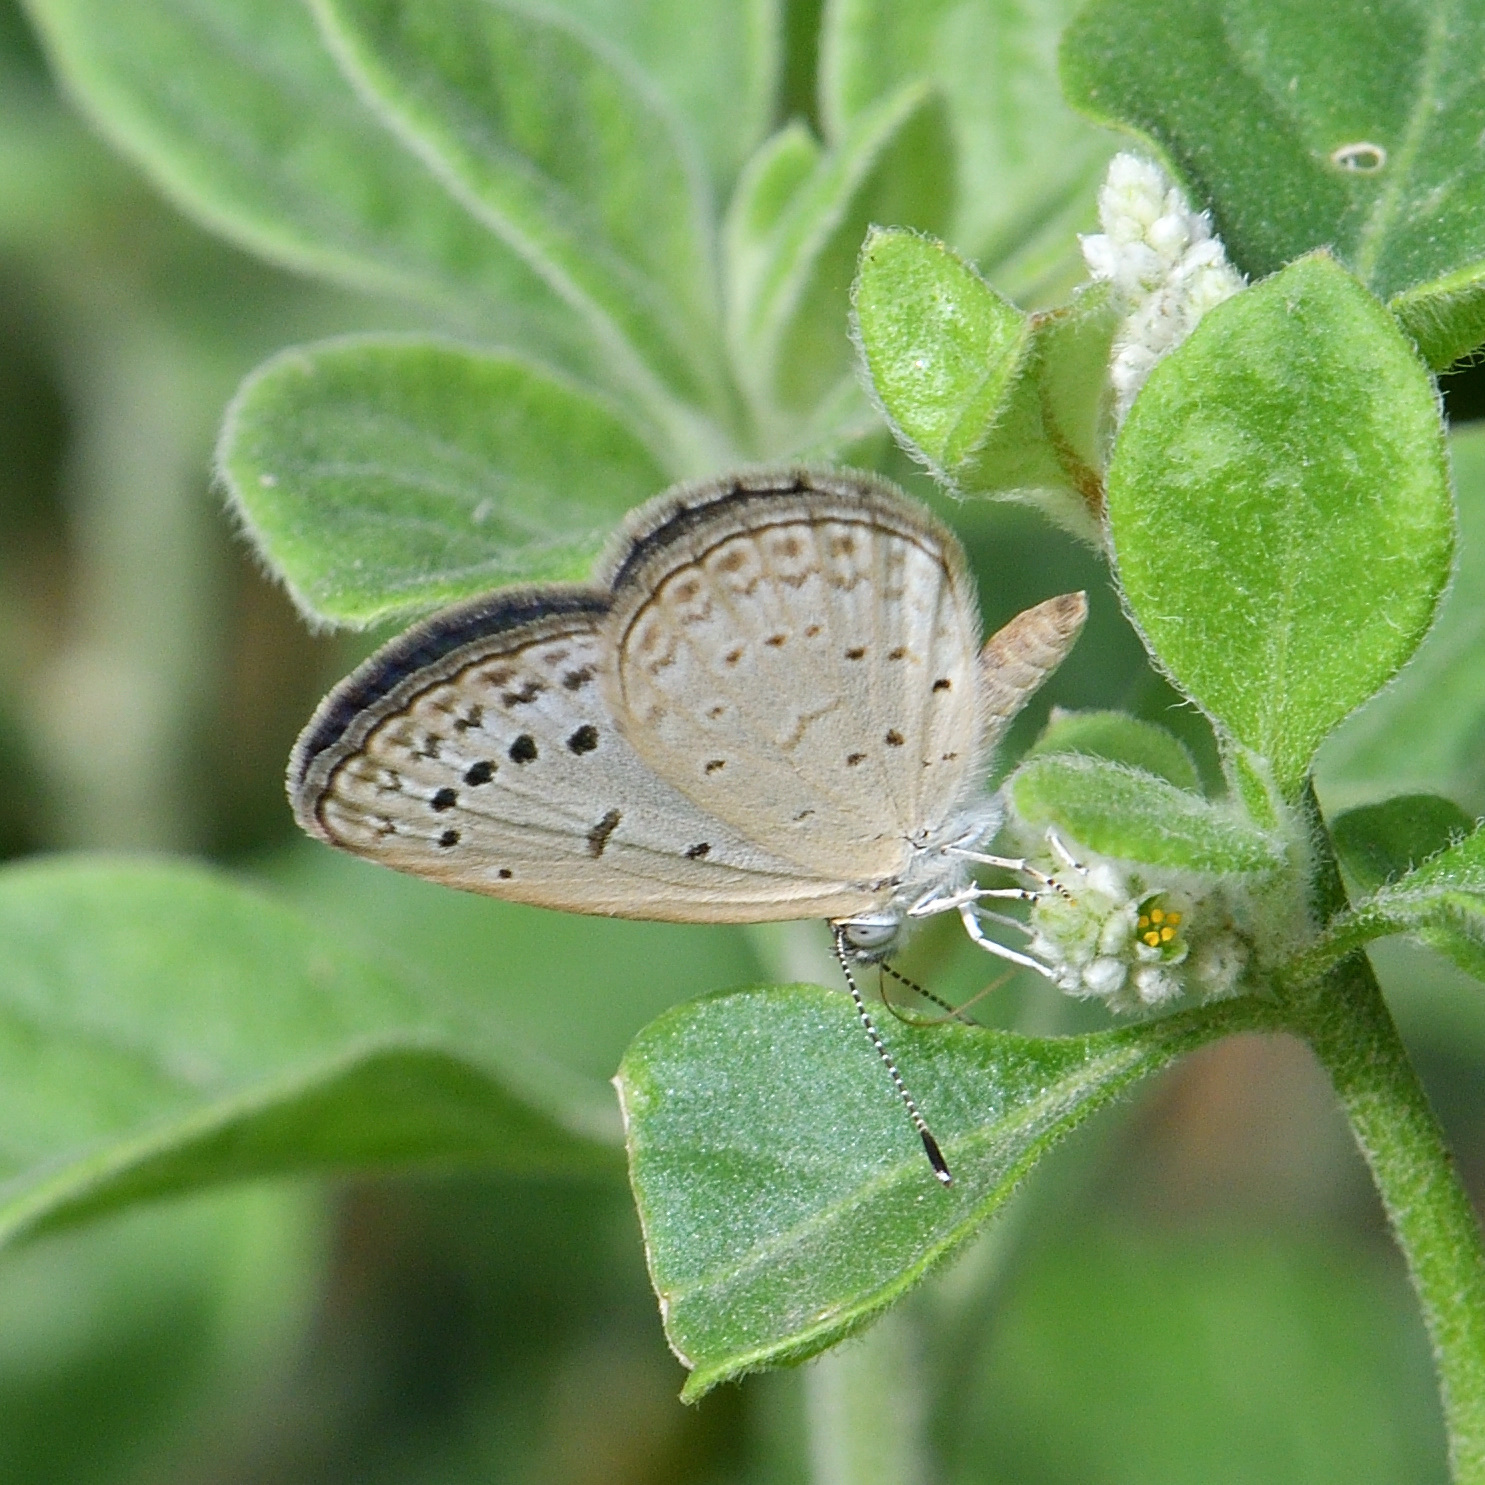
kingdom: Animalia
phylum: Arthropoda
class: Insecta
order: Lepidoptera
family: Lycaenidae
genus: Zizeeria
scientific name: Zizeeria karsandra
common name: Dark grass blue
